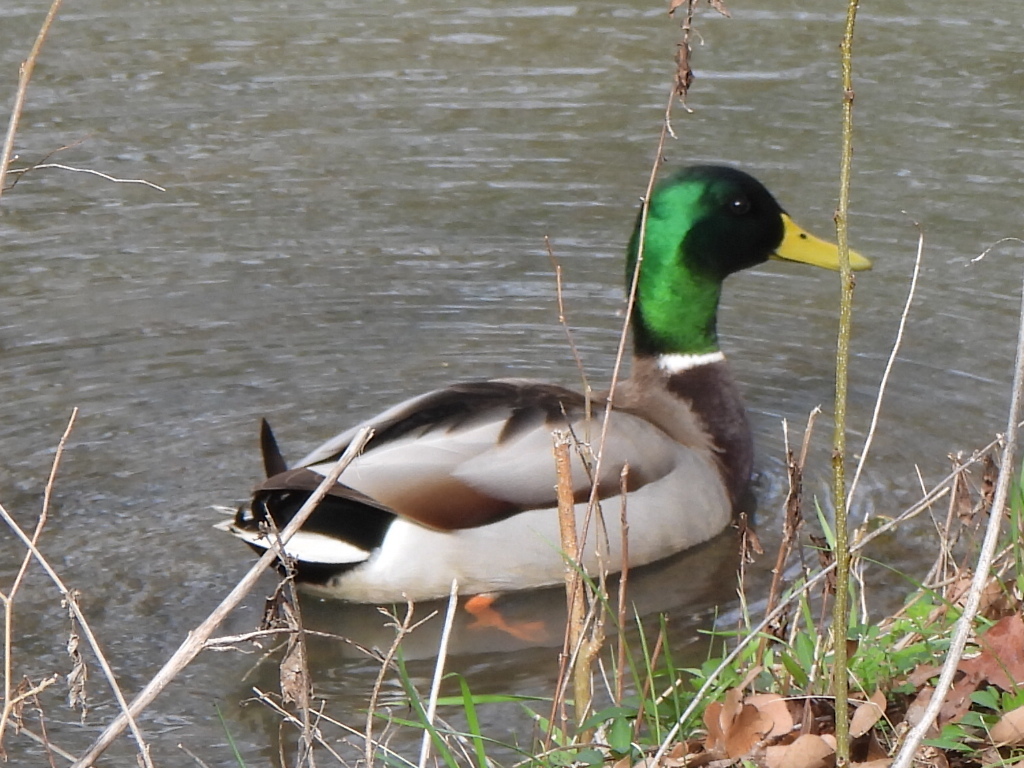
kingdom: Animalia
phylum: Chordata
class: Aves
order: Anseriformes
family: Anatidae
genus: Anas
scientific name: Anas platyrhynchos
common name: Mallard
